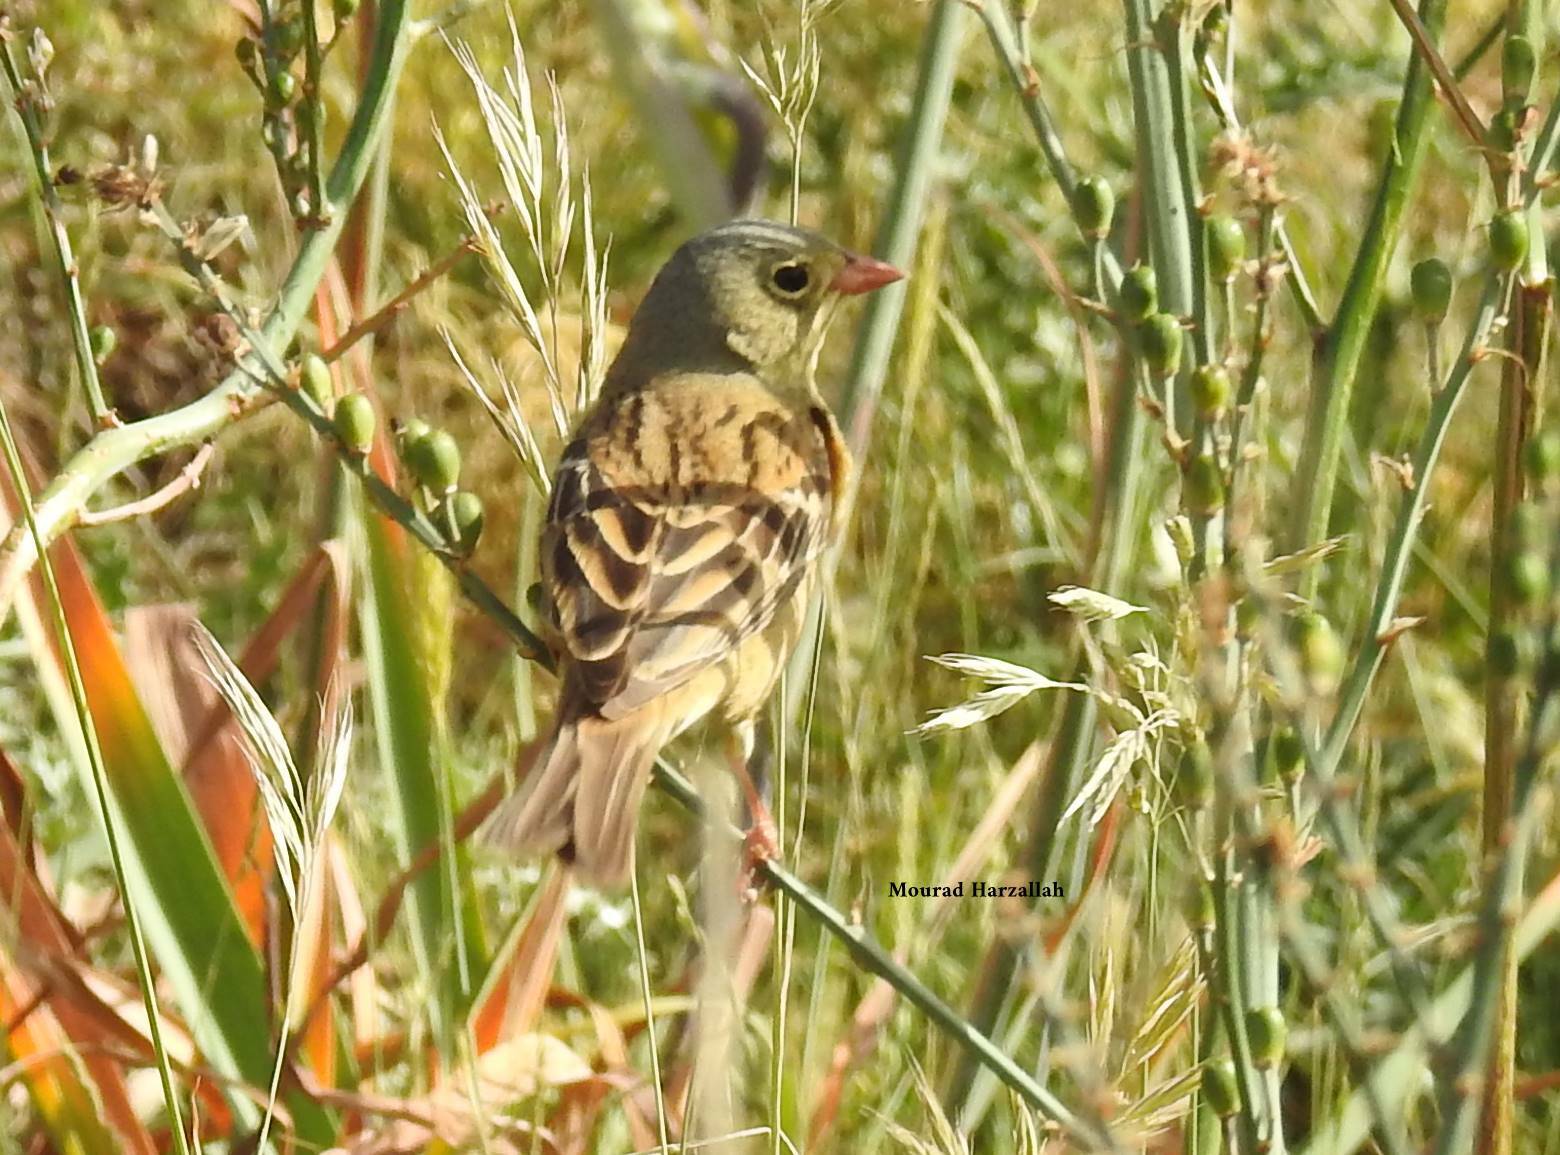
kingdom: Animalia
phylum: Chordata
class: Aves
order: Passeriformes
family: Emberizidae
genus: Emberiza
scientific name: Emberiza hortulana
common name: Ortolan bunting
